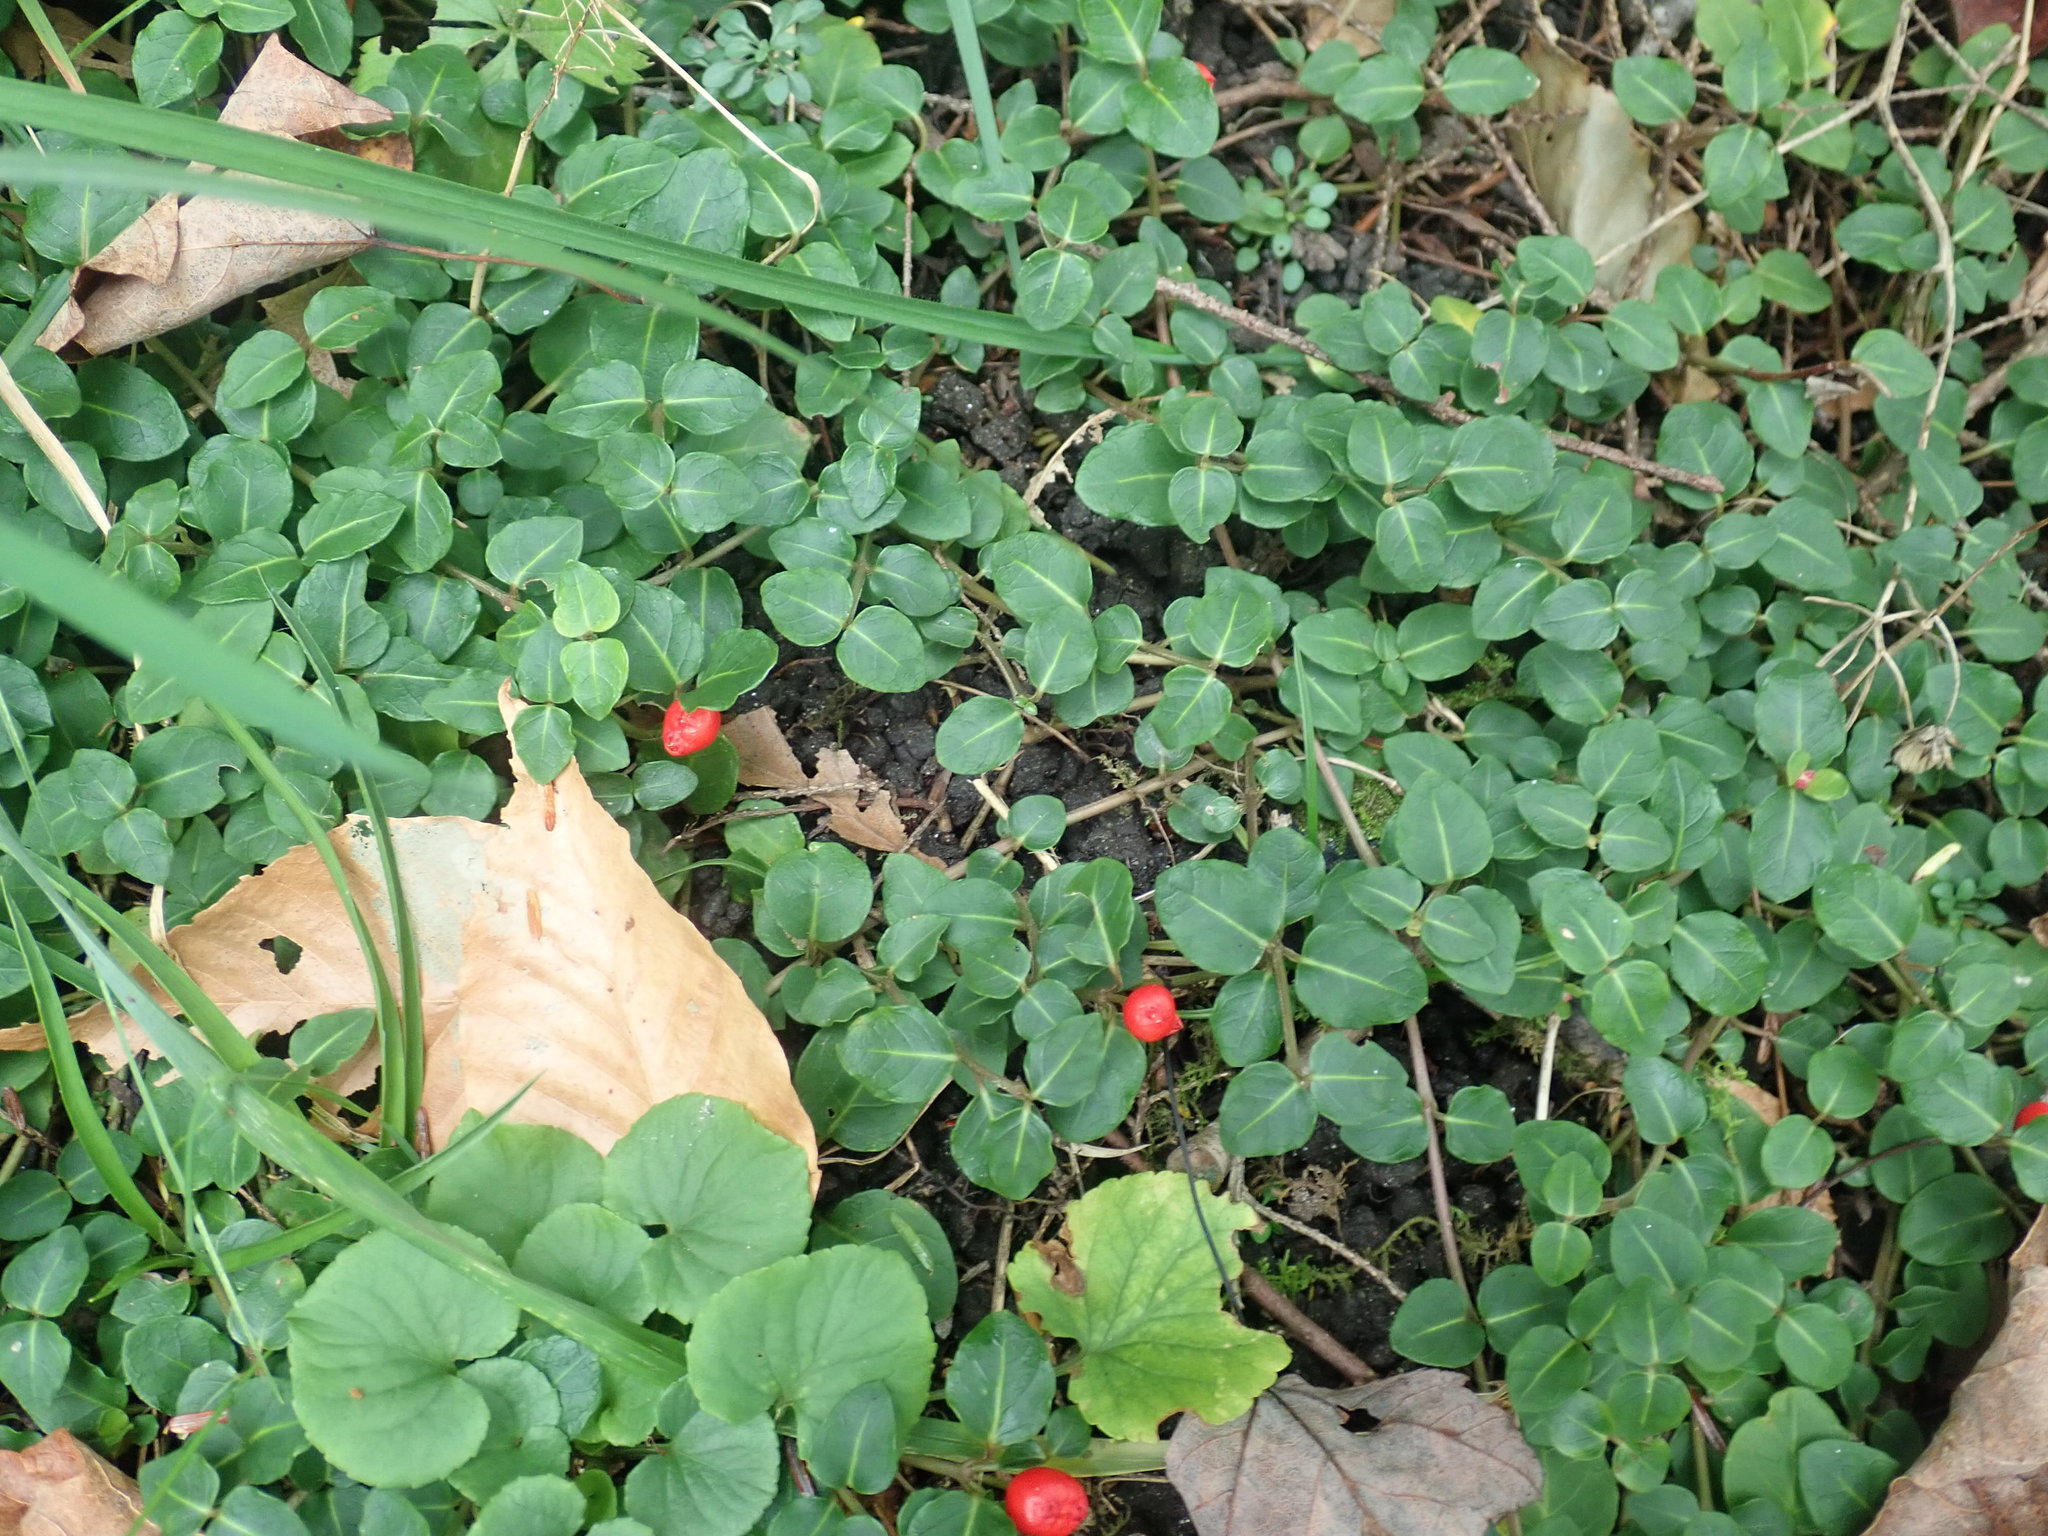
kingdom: Plantae
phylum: Tracheophyta
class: Magnoliopsida
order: Gentianales
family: Rubiaceae
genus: Mitchella
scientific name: Mitchella repens
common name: Partridge-berry
